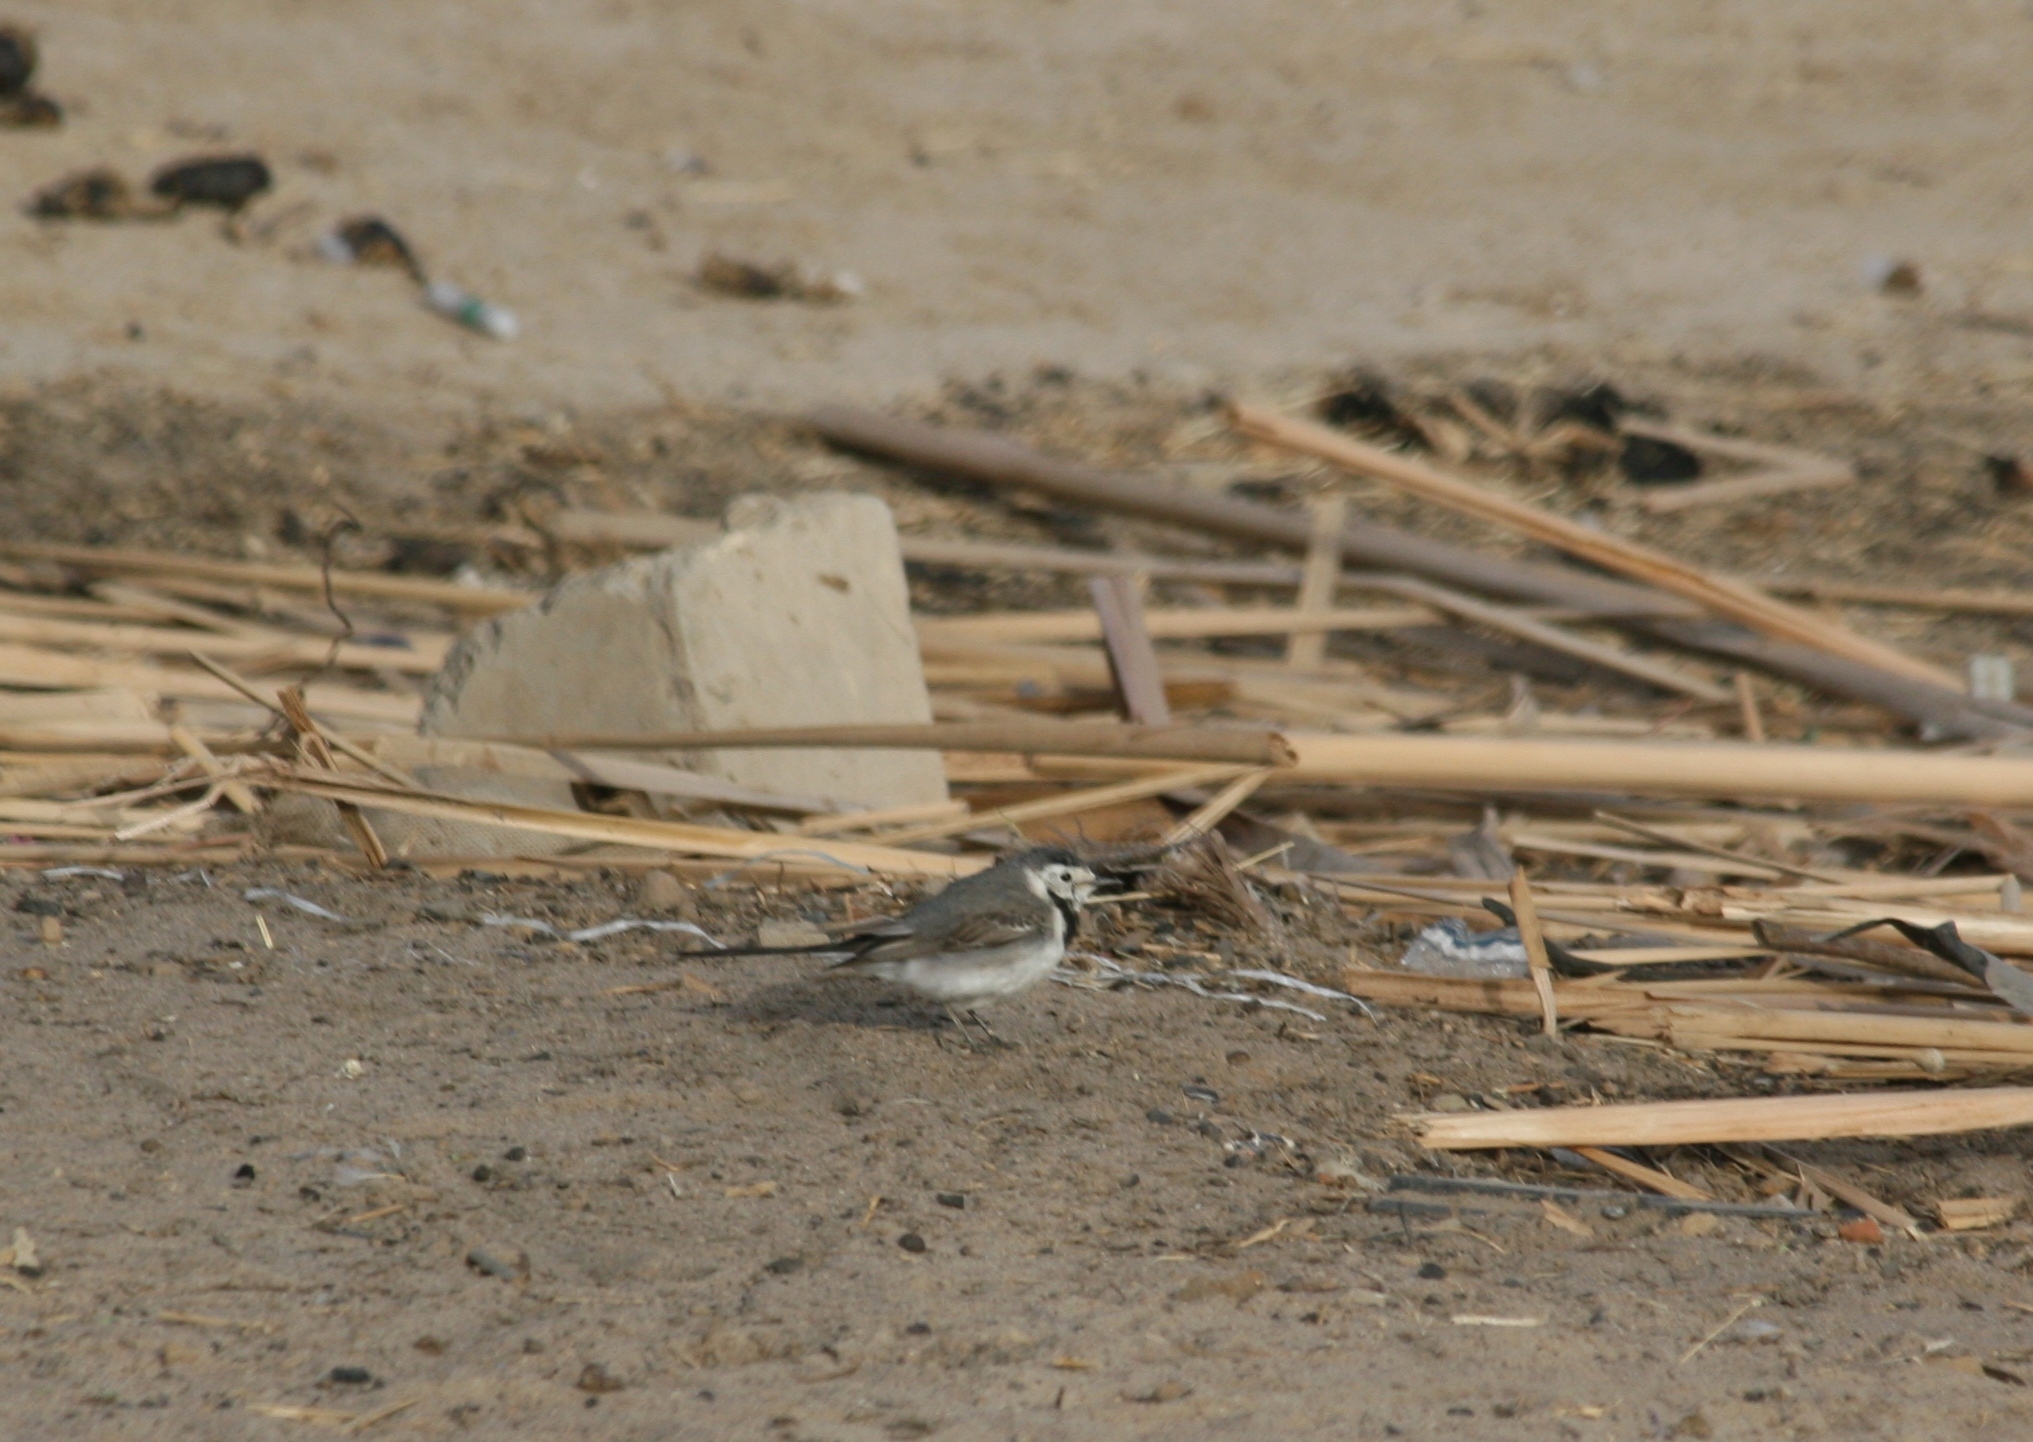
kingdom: Animalia
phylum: Chordata
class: Aves
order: Passeriformes
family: Motacillidae
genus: Motacilla
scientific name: Motacilla alba
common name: White wagtail
